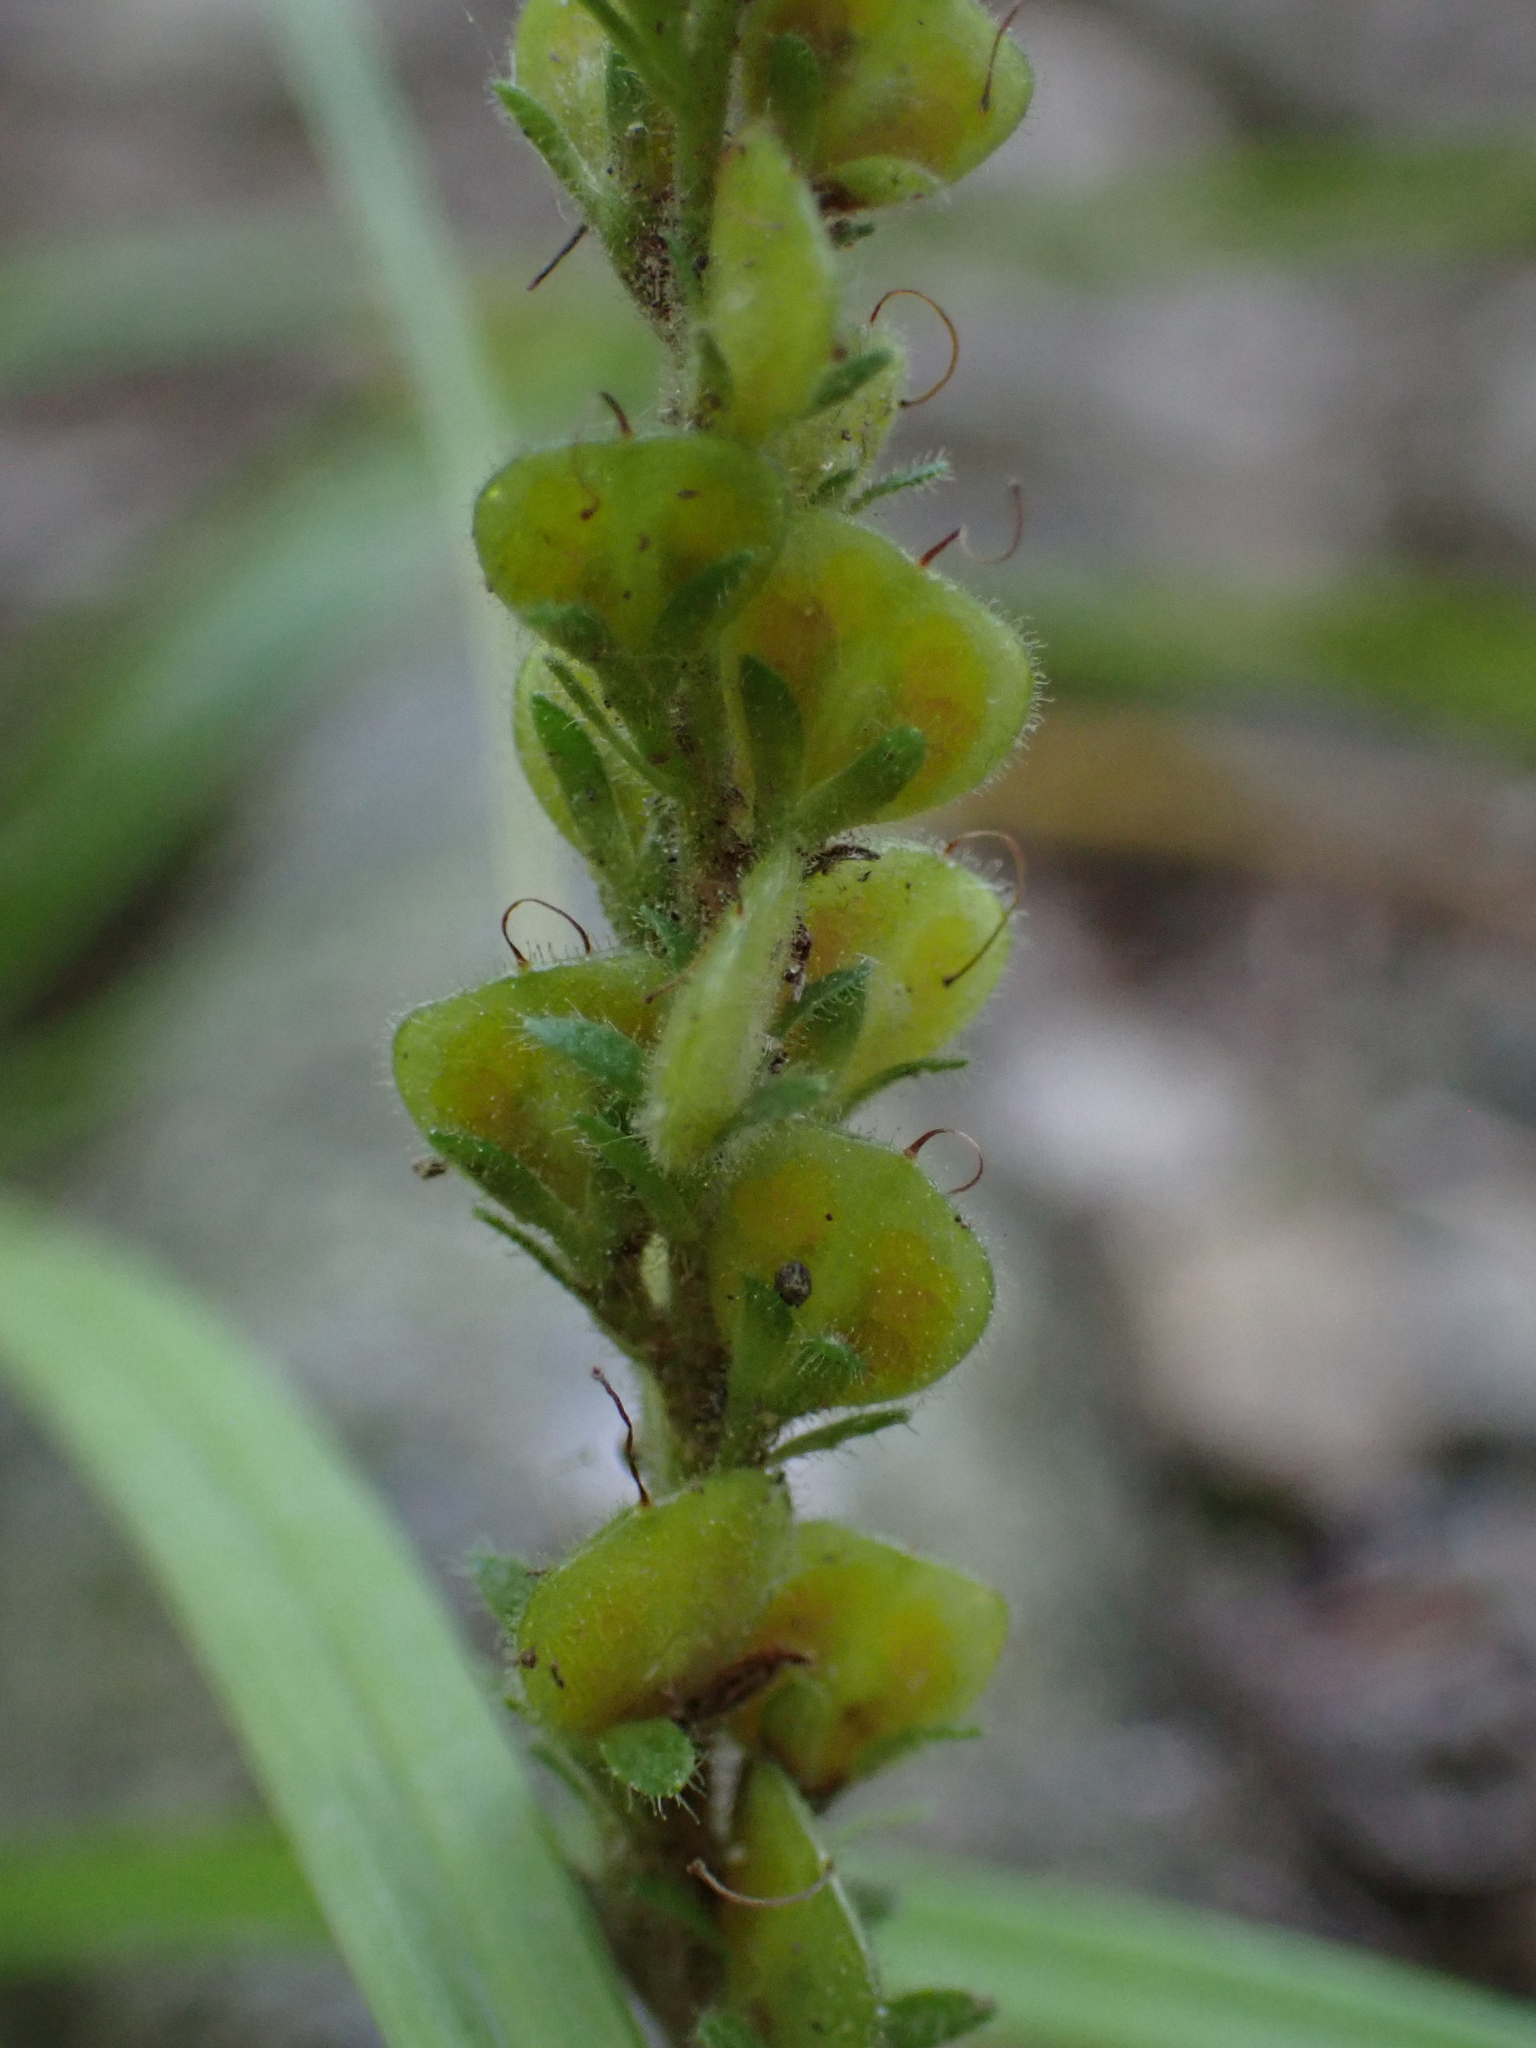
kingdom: Plantae
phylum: Tracheophyta
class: Magnoliopsida
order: Lamiales
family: Plantaginaceae
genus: Veronica
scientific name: Veronica officinalis
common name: Common speedwell
